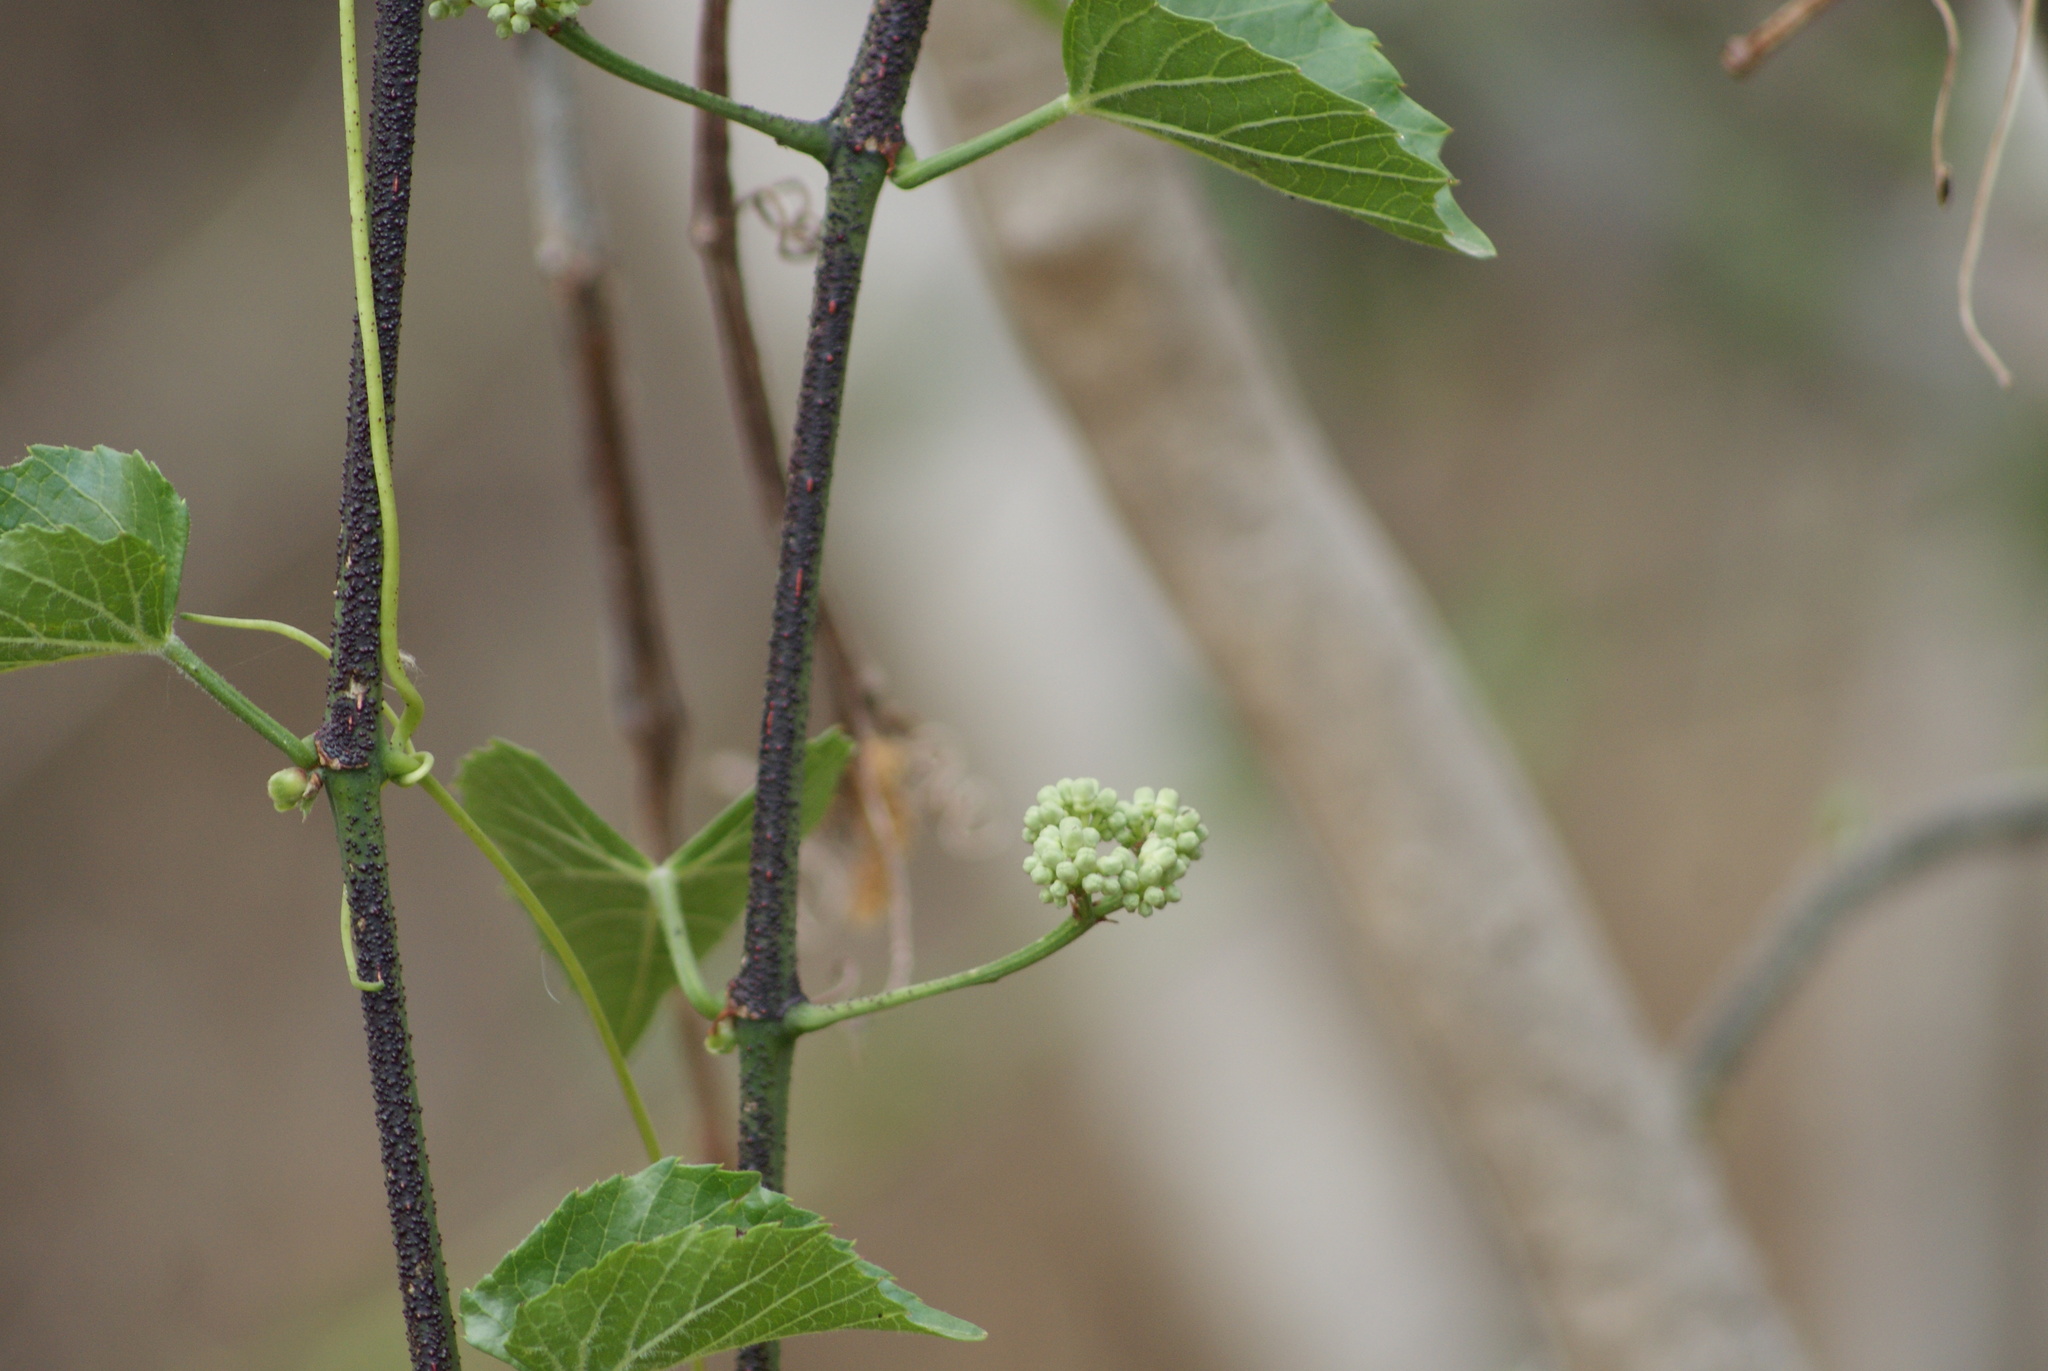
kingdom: Plantae
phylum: Tracheophyta
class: Magnoliopsida
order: Vitales
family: Vitaceae
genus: Cissus
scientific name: Cissus verticillata
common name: Princess vine
